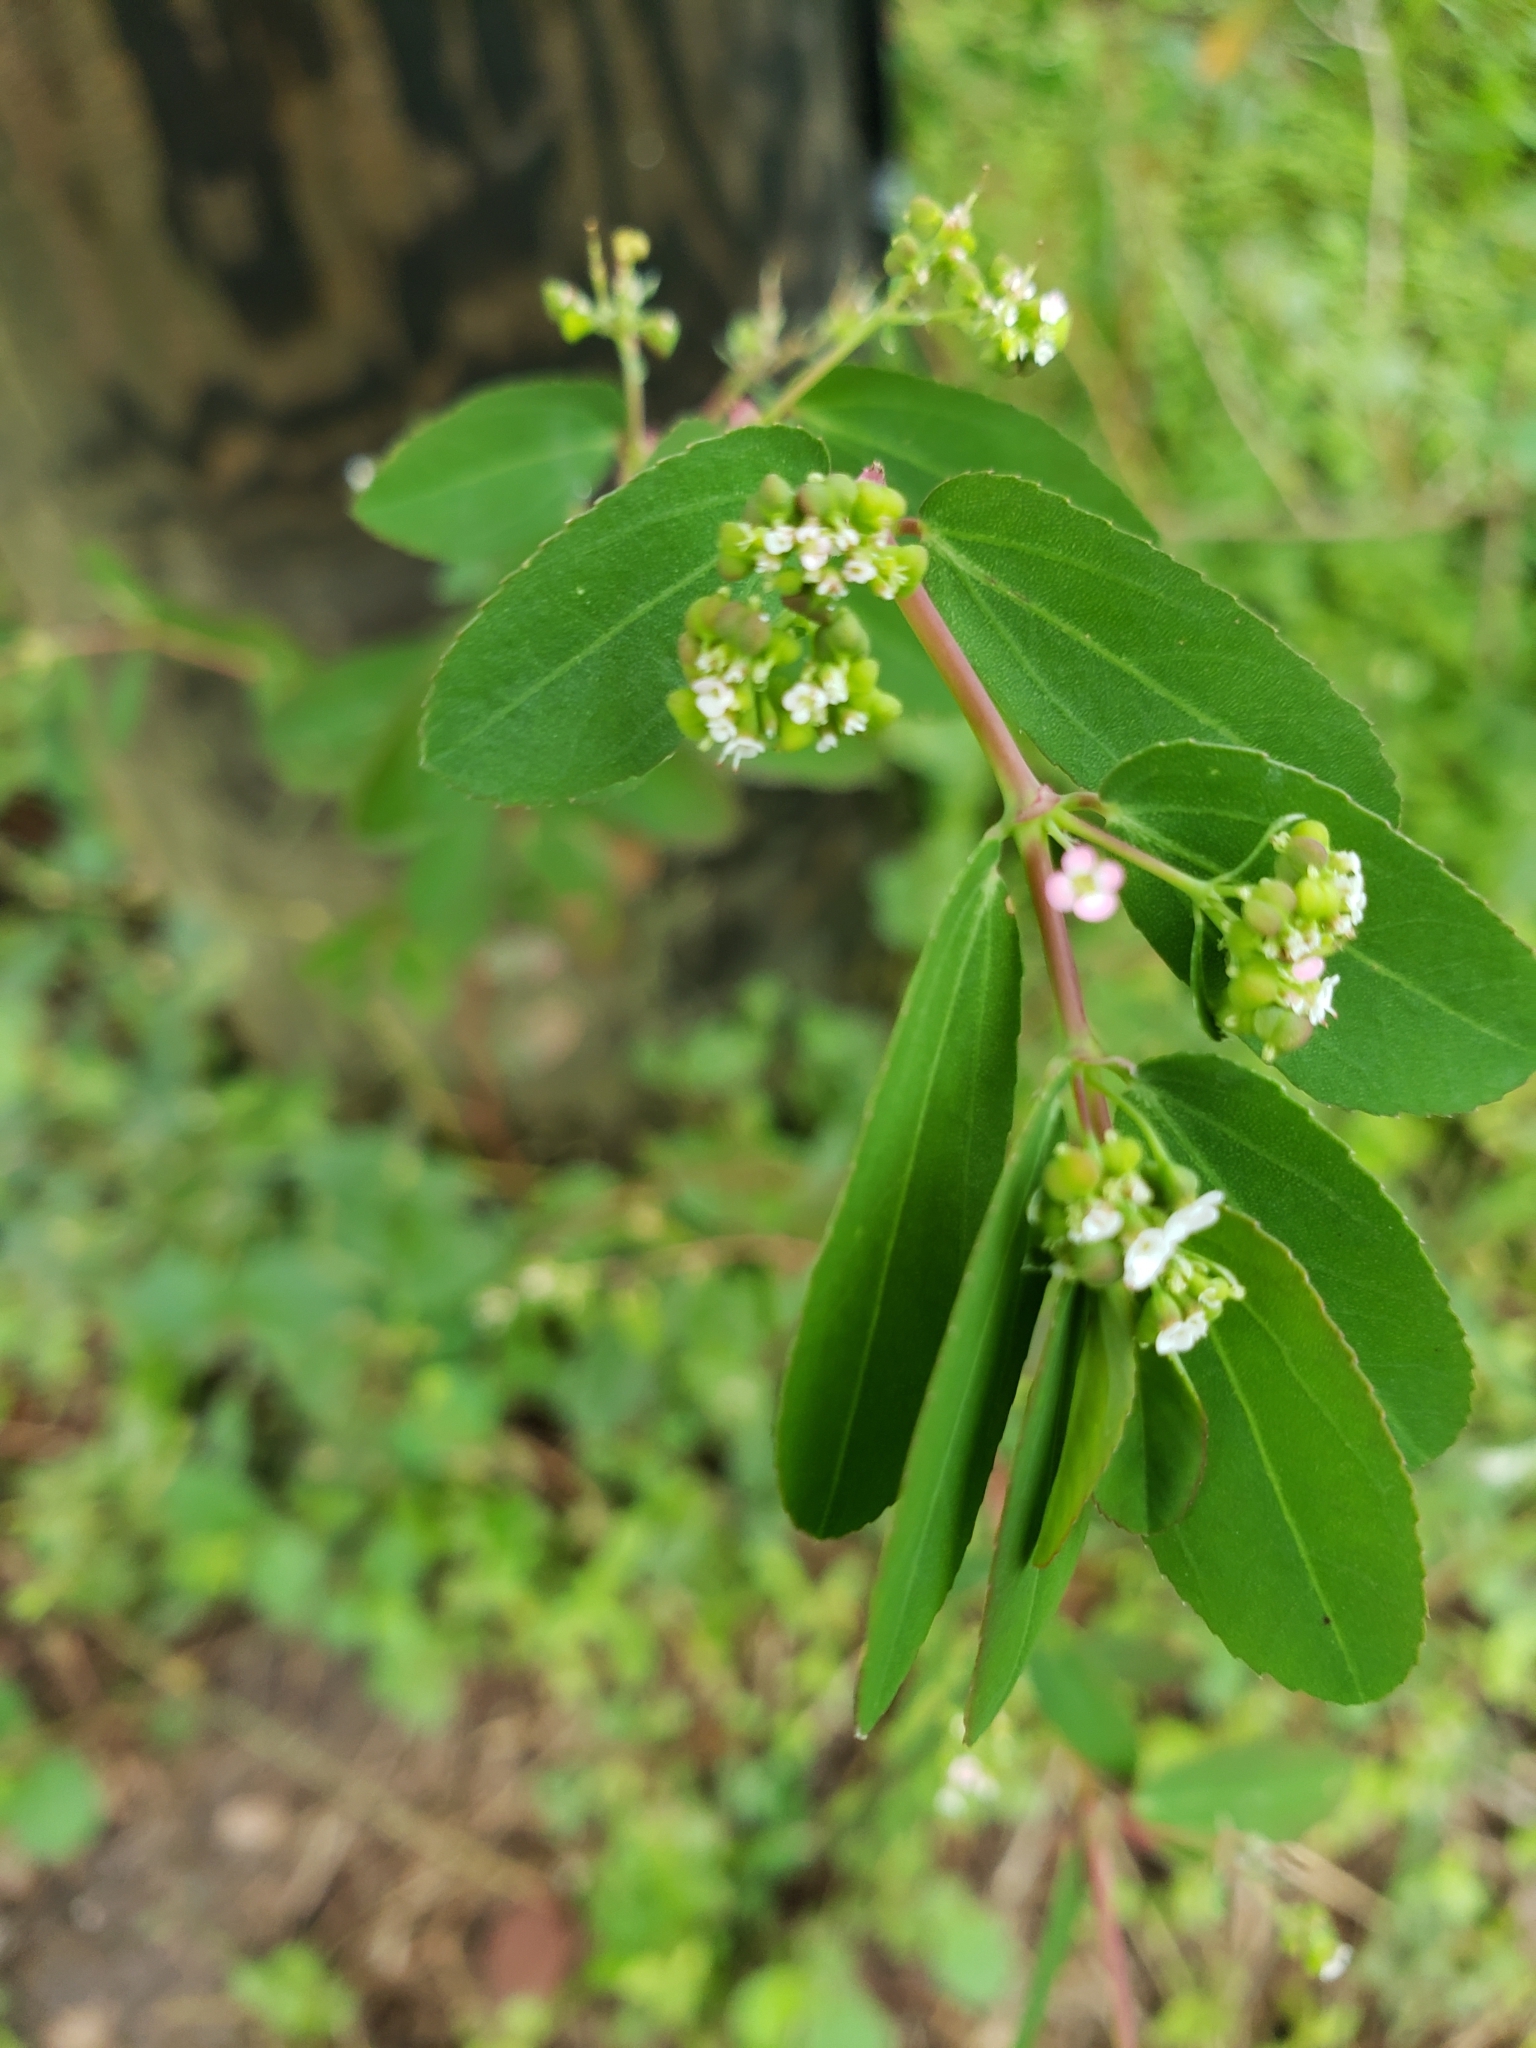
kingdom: Plantae
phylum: Tracheophyta
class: Magnoliopsida
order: Malpighiales
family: Euphorbiaceae
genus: Euphorbia
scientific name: Euphorbia hypericifolia
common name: Graceful sandmat
